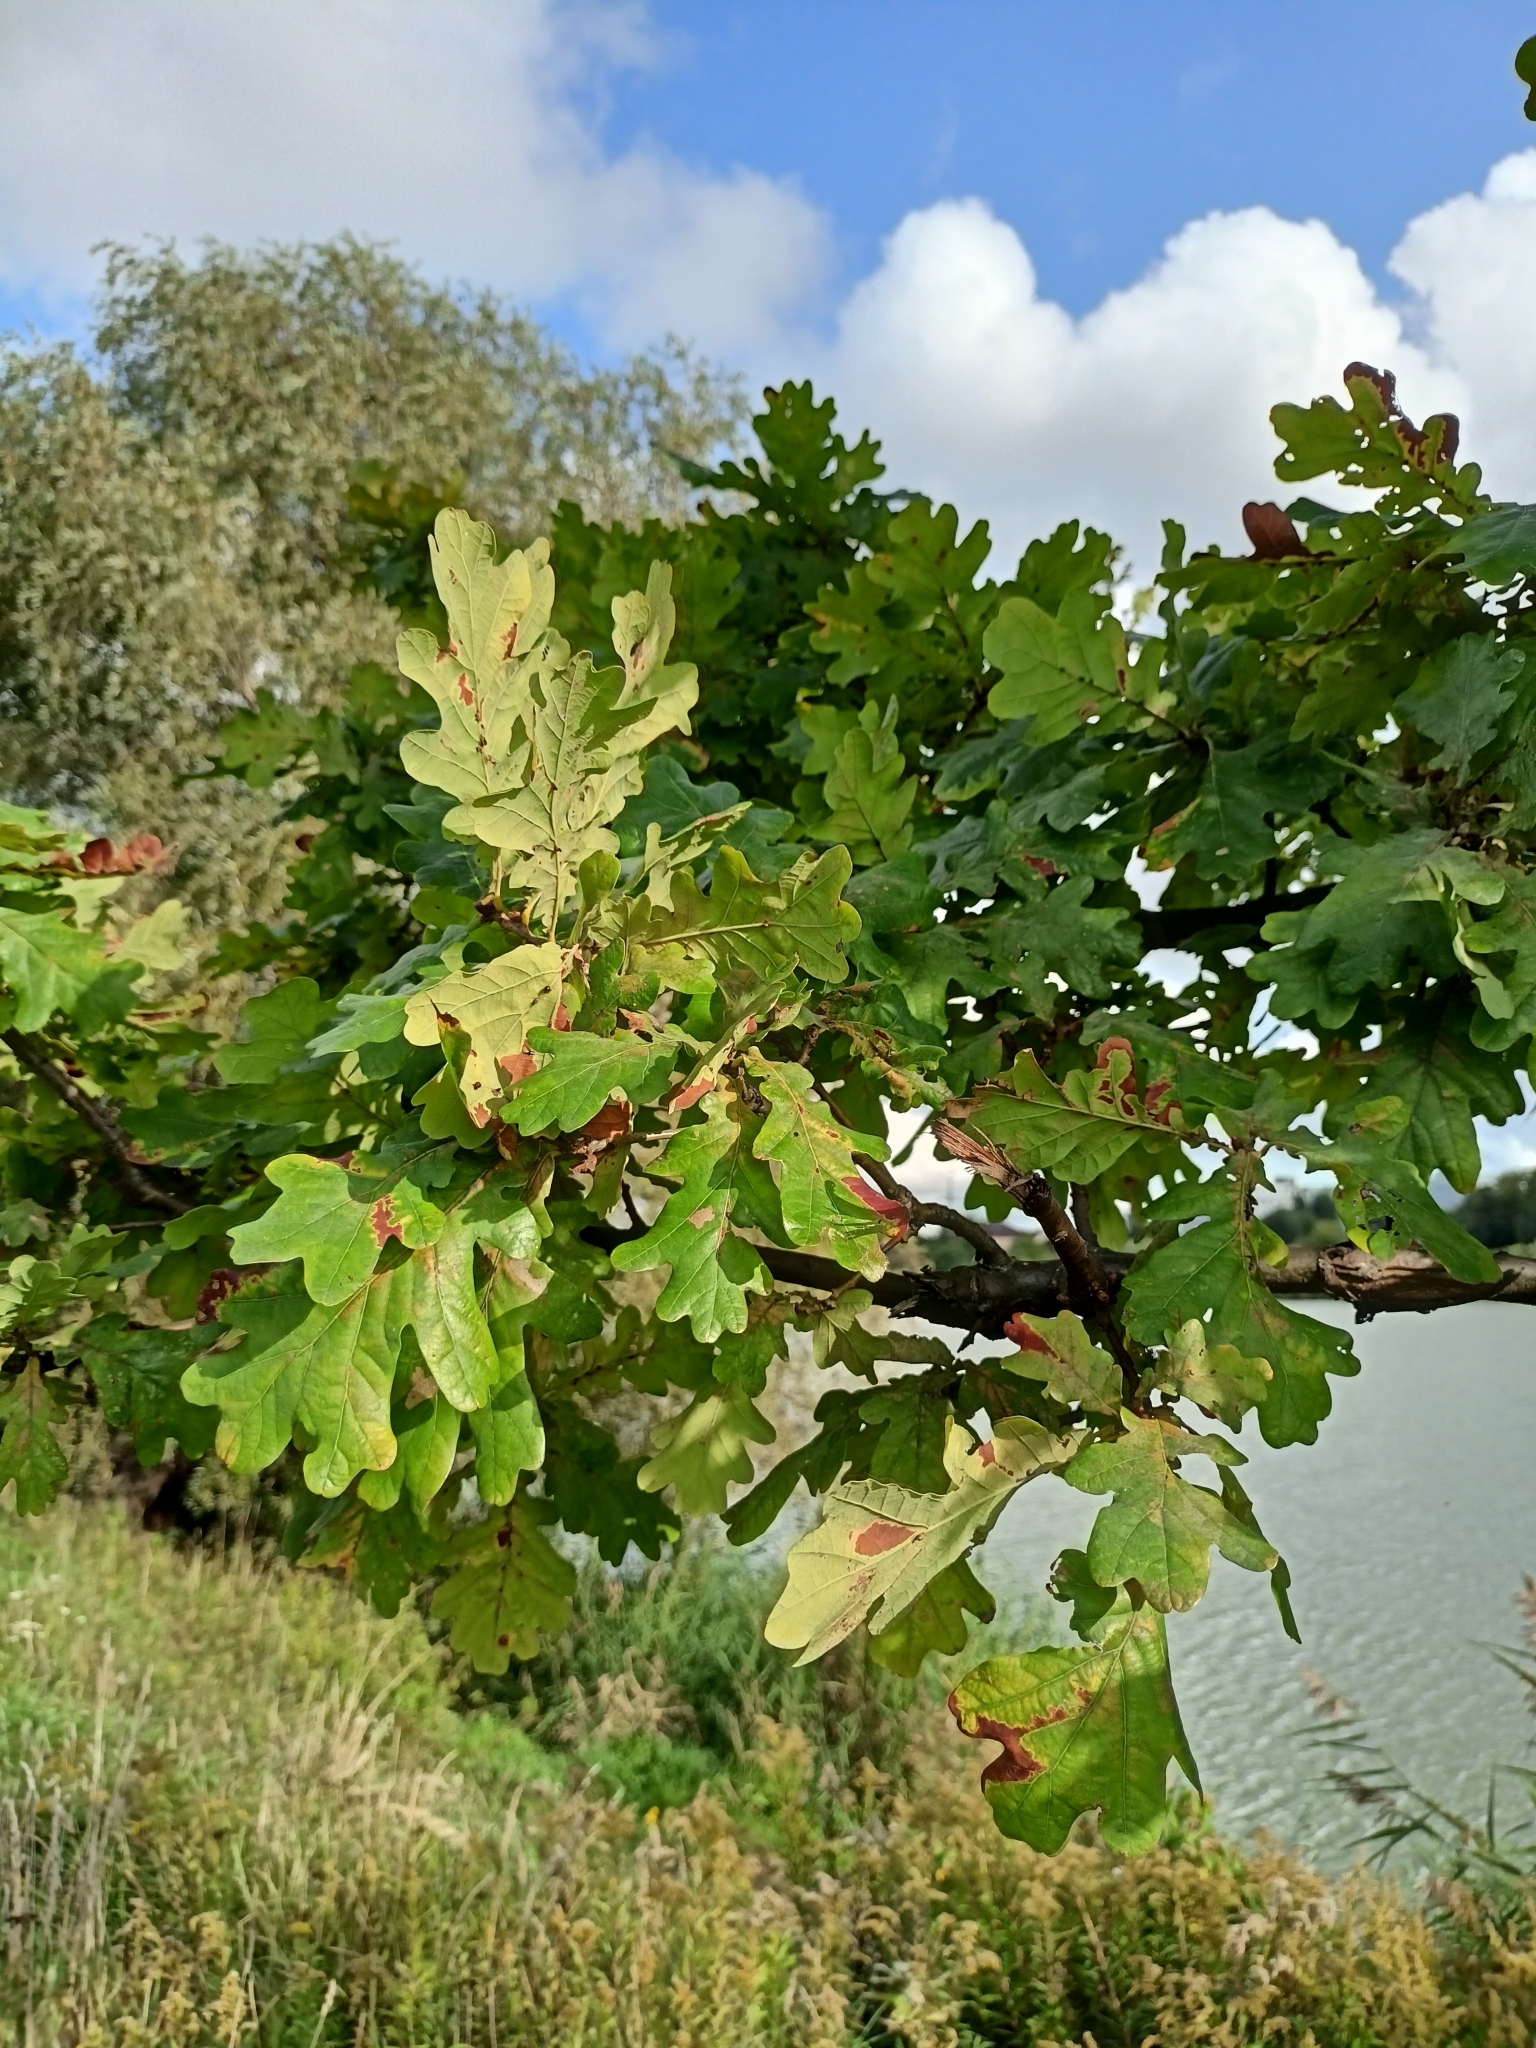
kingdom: Plantae
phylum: Tracheophyta
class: Magnoliopsida
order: Fagales
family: Fagaceae
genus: Quercus
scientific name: Quercus robur
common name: Pedunculate oak
